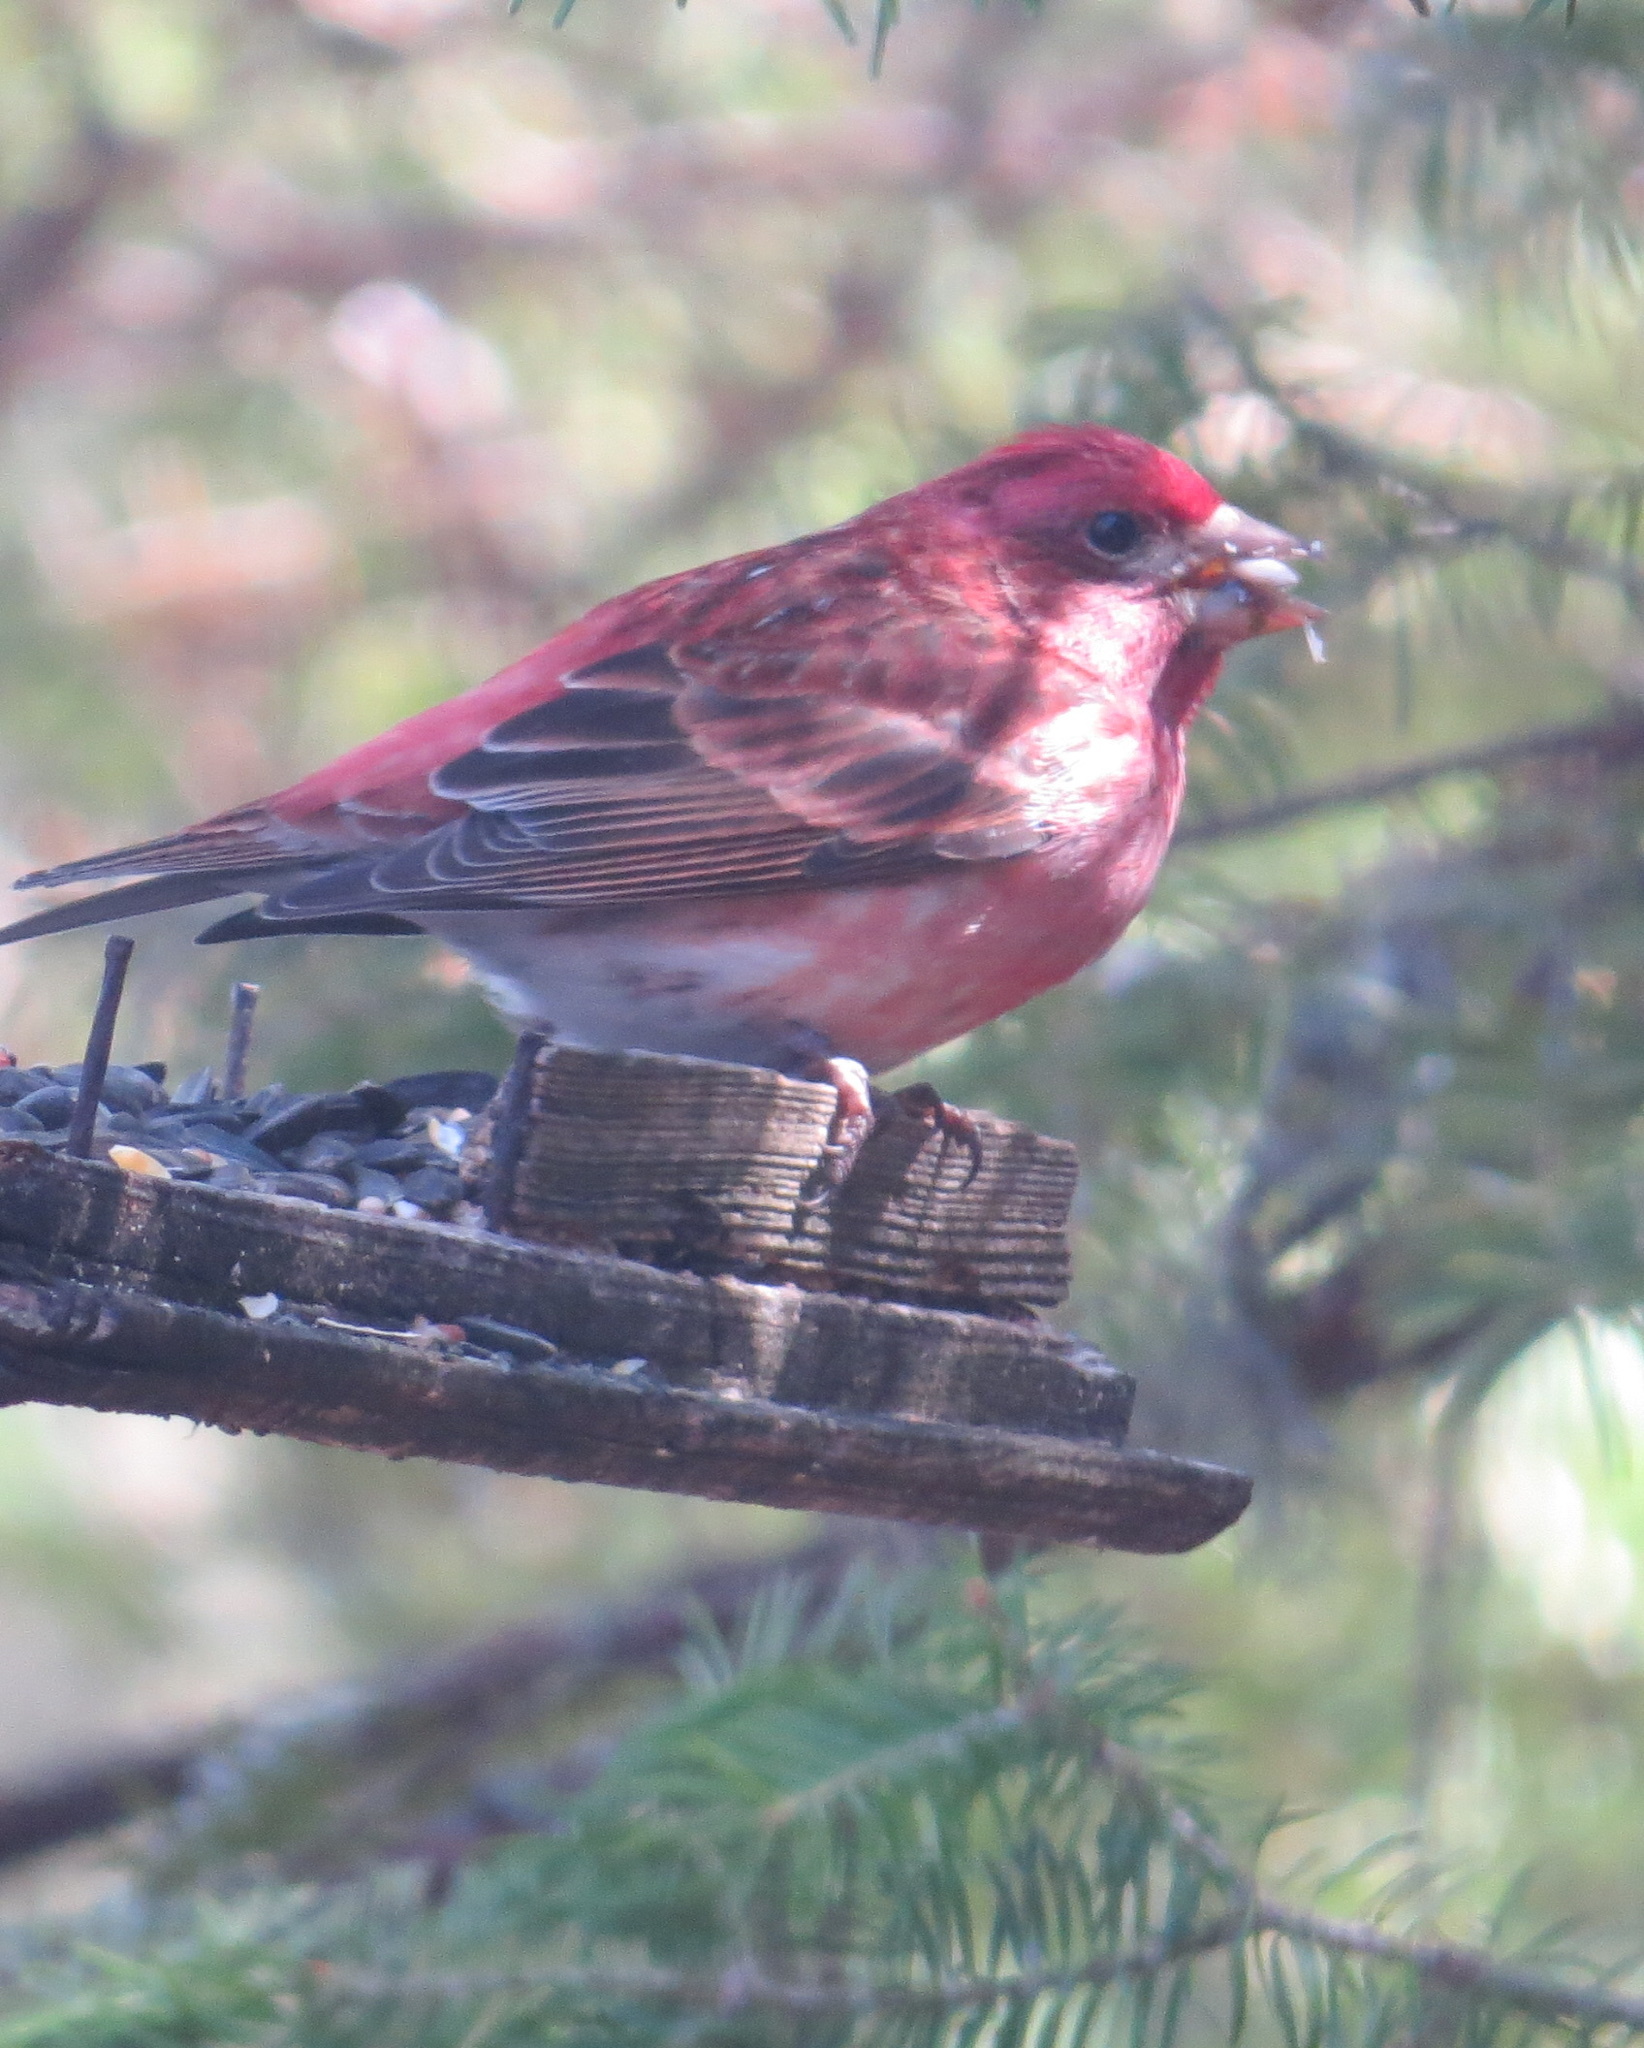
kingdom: Animalia
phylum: Chordata
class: Aves
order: Passeriformes
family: Fringillidae
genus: Haemorhous
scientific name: Haemorhous purpureus
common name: Purple finch
